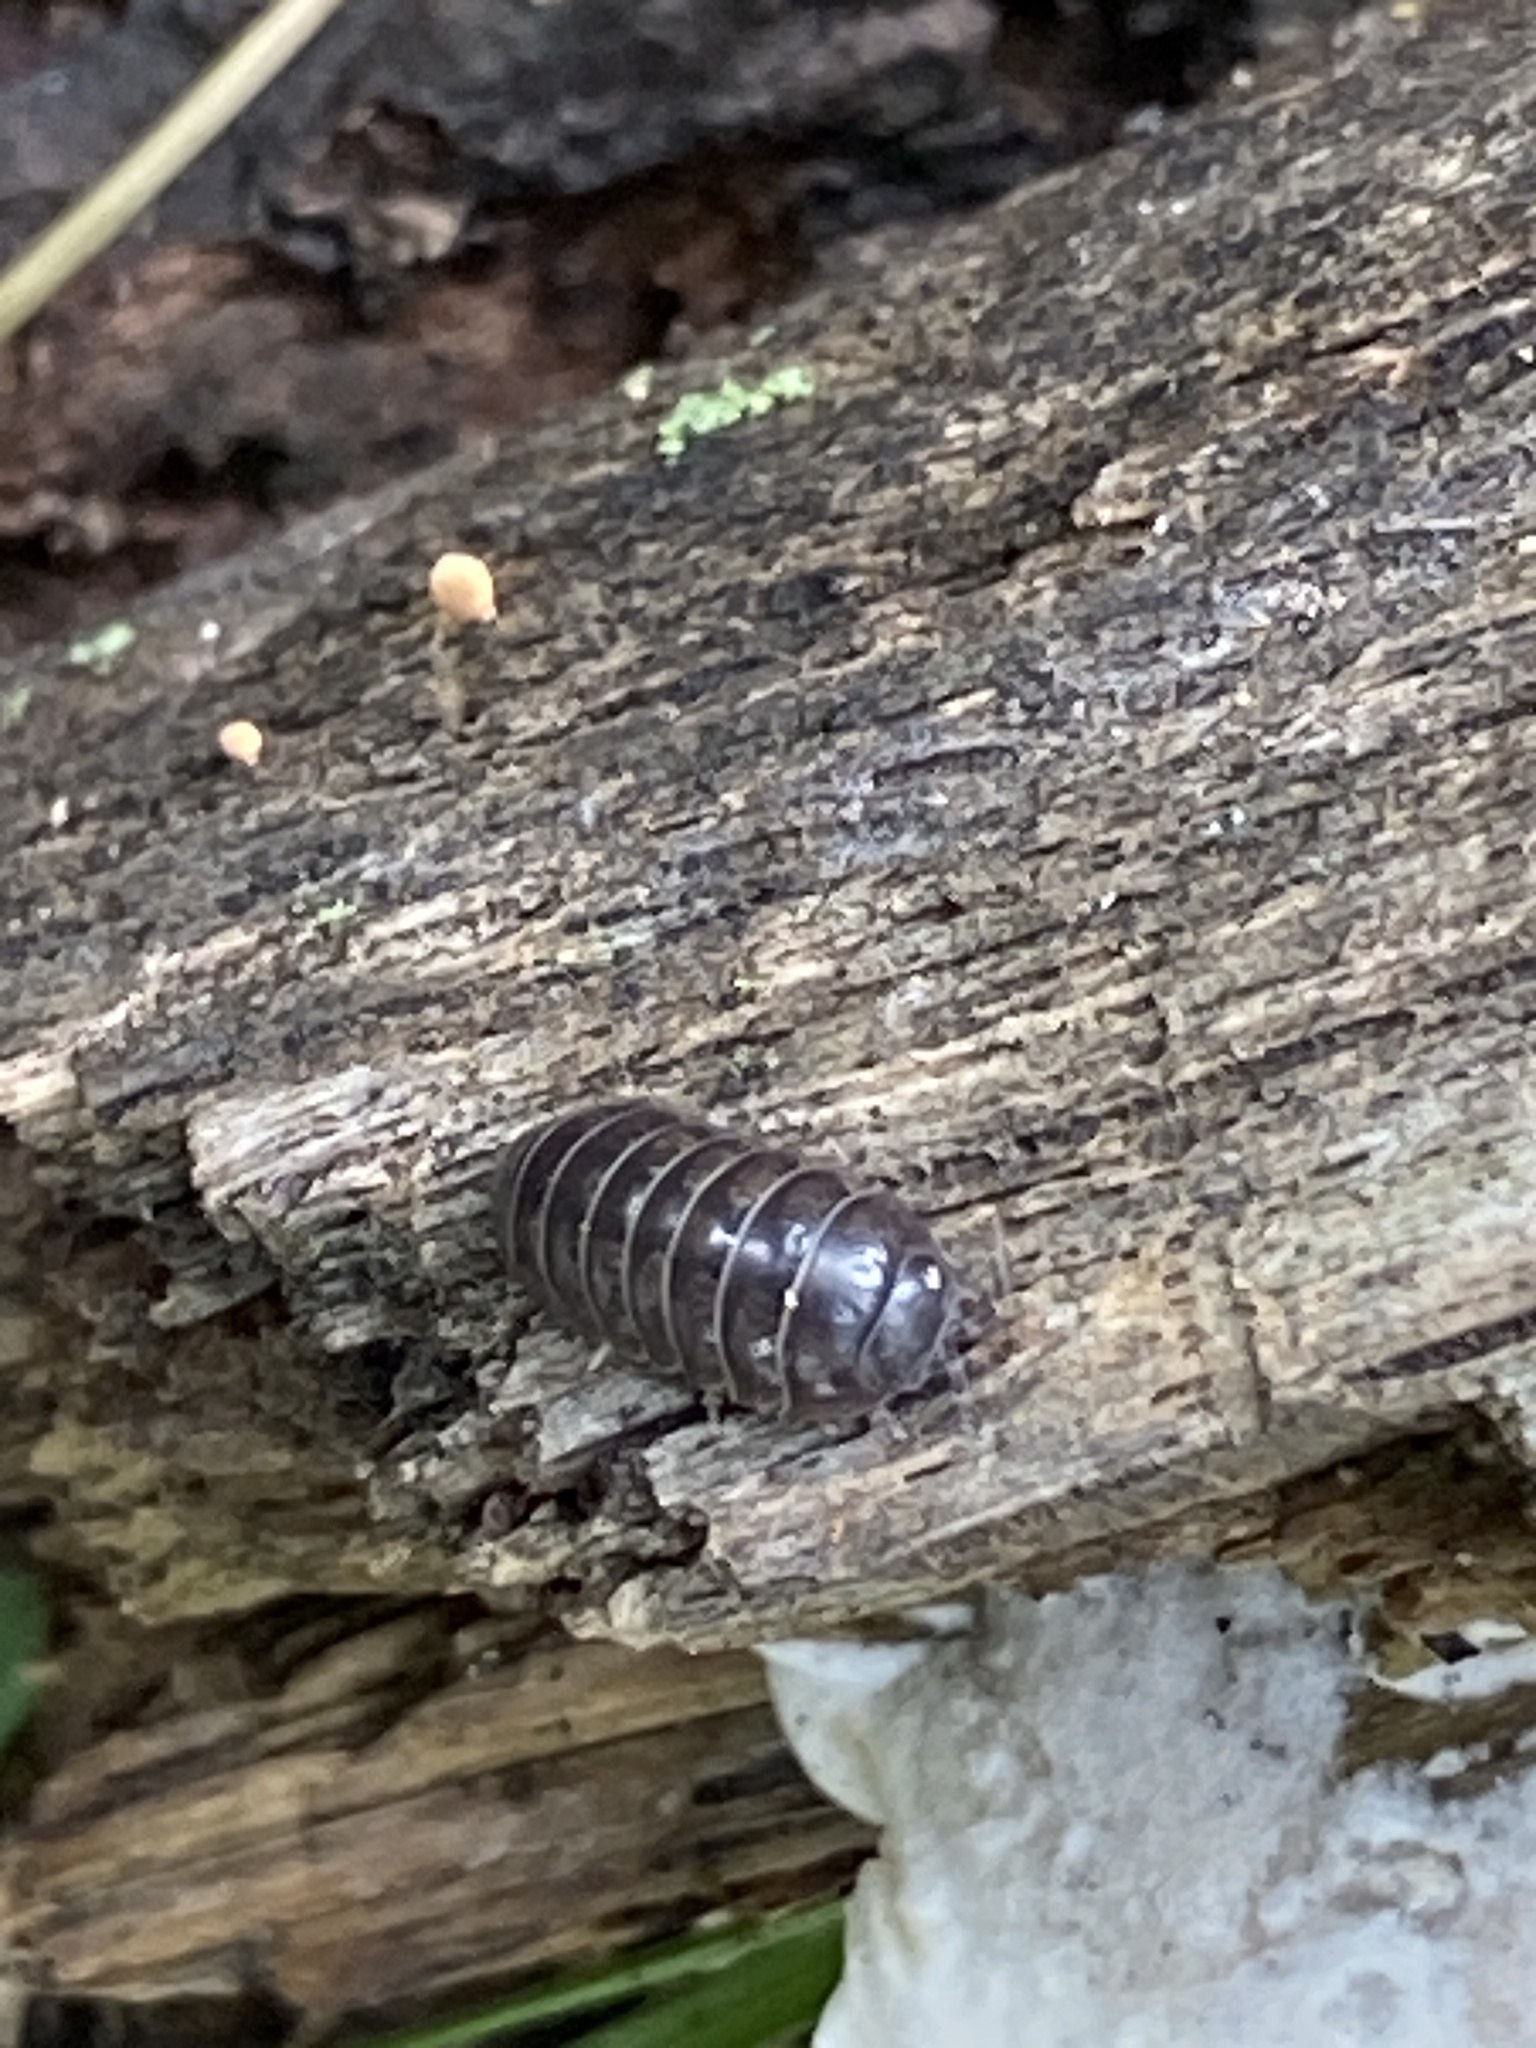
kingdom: Animalia
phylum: Arthropoda
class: Malacostraca
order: Isopoda
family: Armadillidiidae
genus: Armadillidium
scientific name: Armadillidium vulgare
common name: Common pill woodlouse
